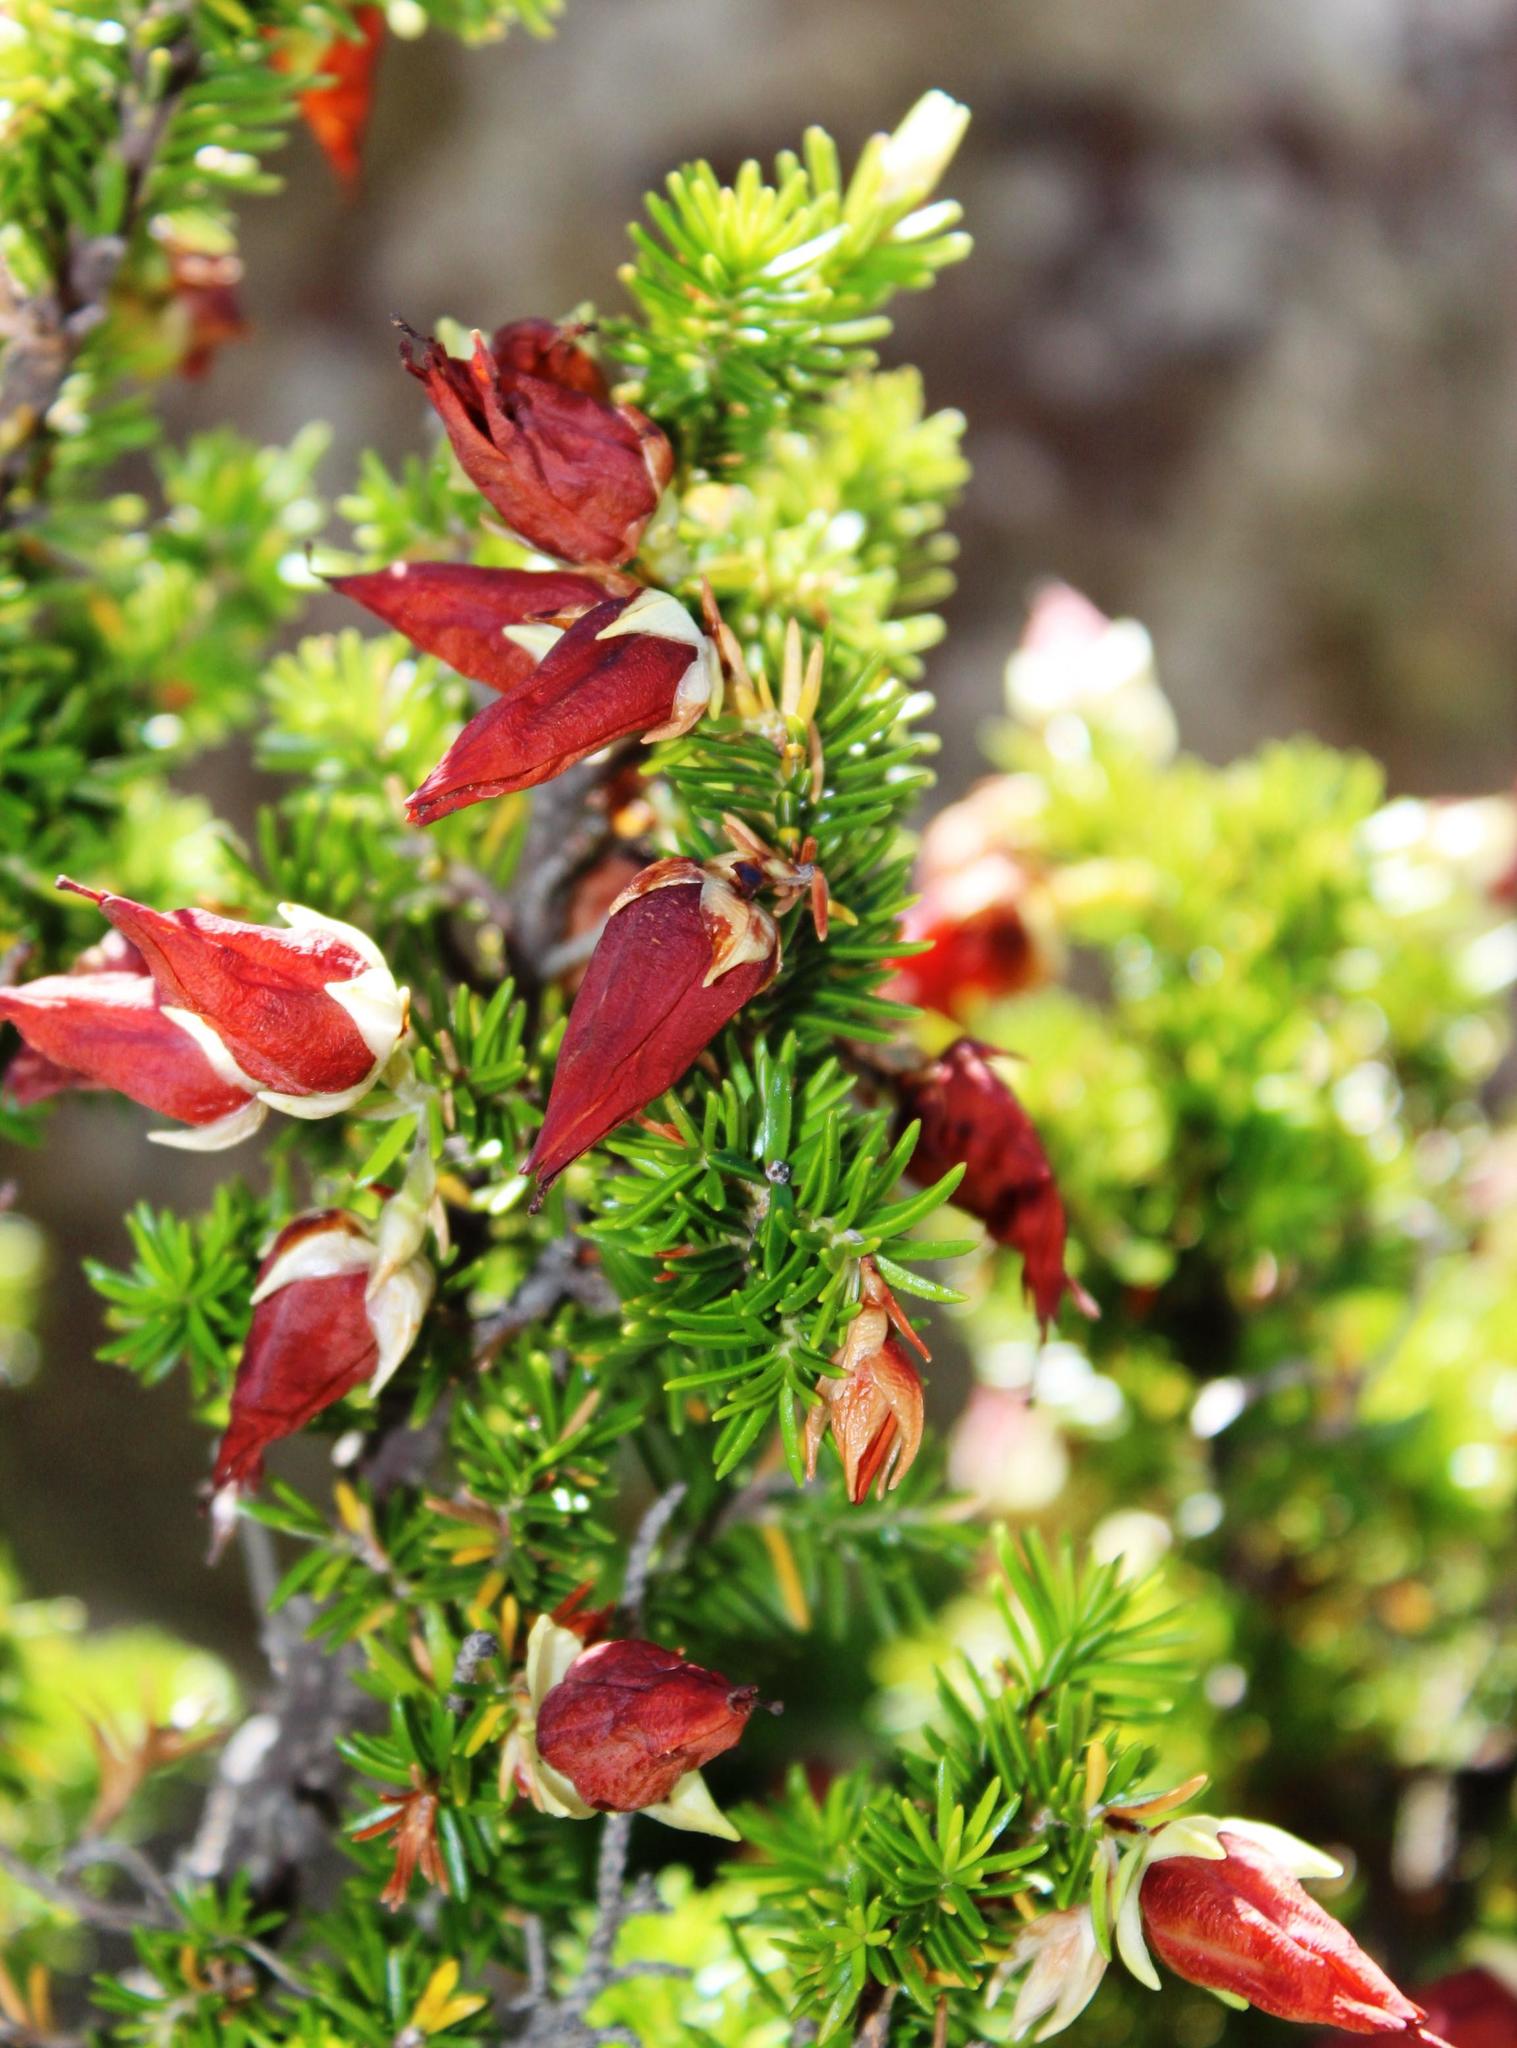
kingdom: Plantae
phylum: Tracheophyta
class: Magnoliopsida
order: Ericales
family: Ericaceae
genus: Erica
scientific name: Erica halicacaba
